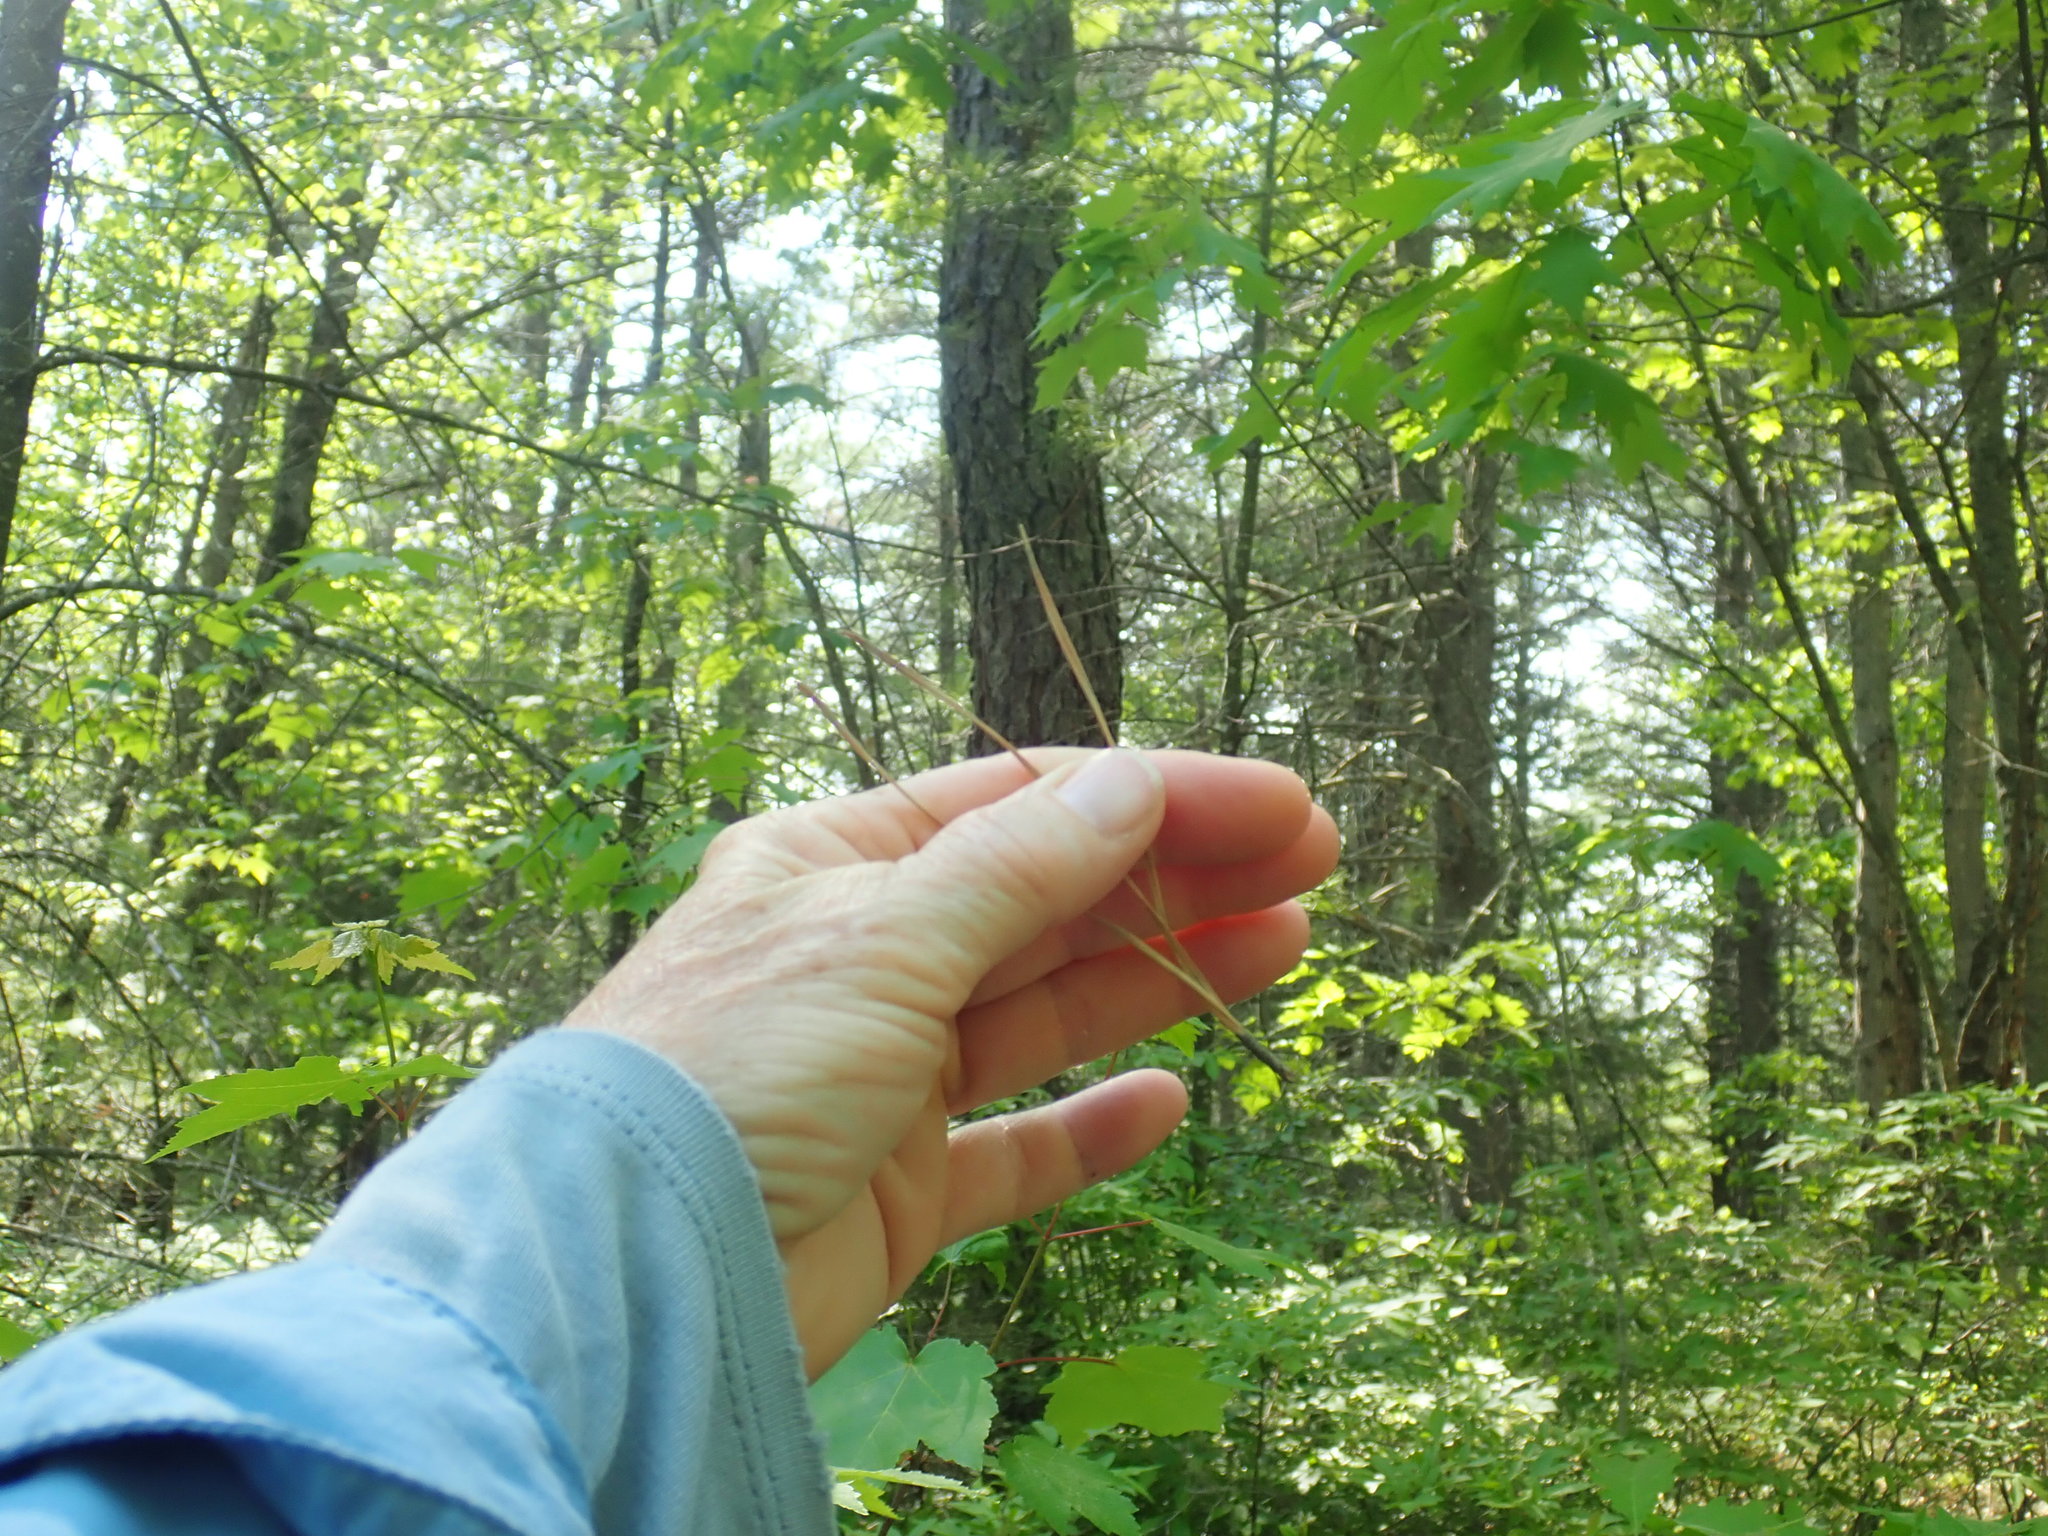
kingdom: Plantae
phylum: Tracheophyta
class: Pinopsida
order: Pinales
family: Pinaceae
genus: Pinus
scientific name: Pinus rigida
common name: Pitch pine
